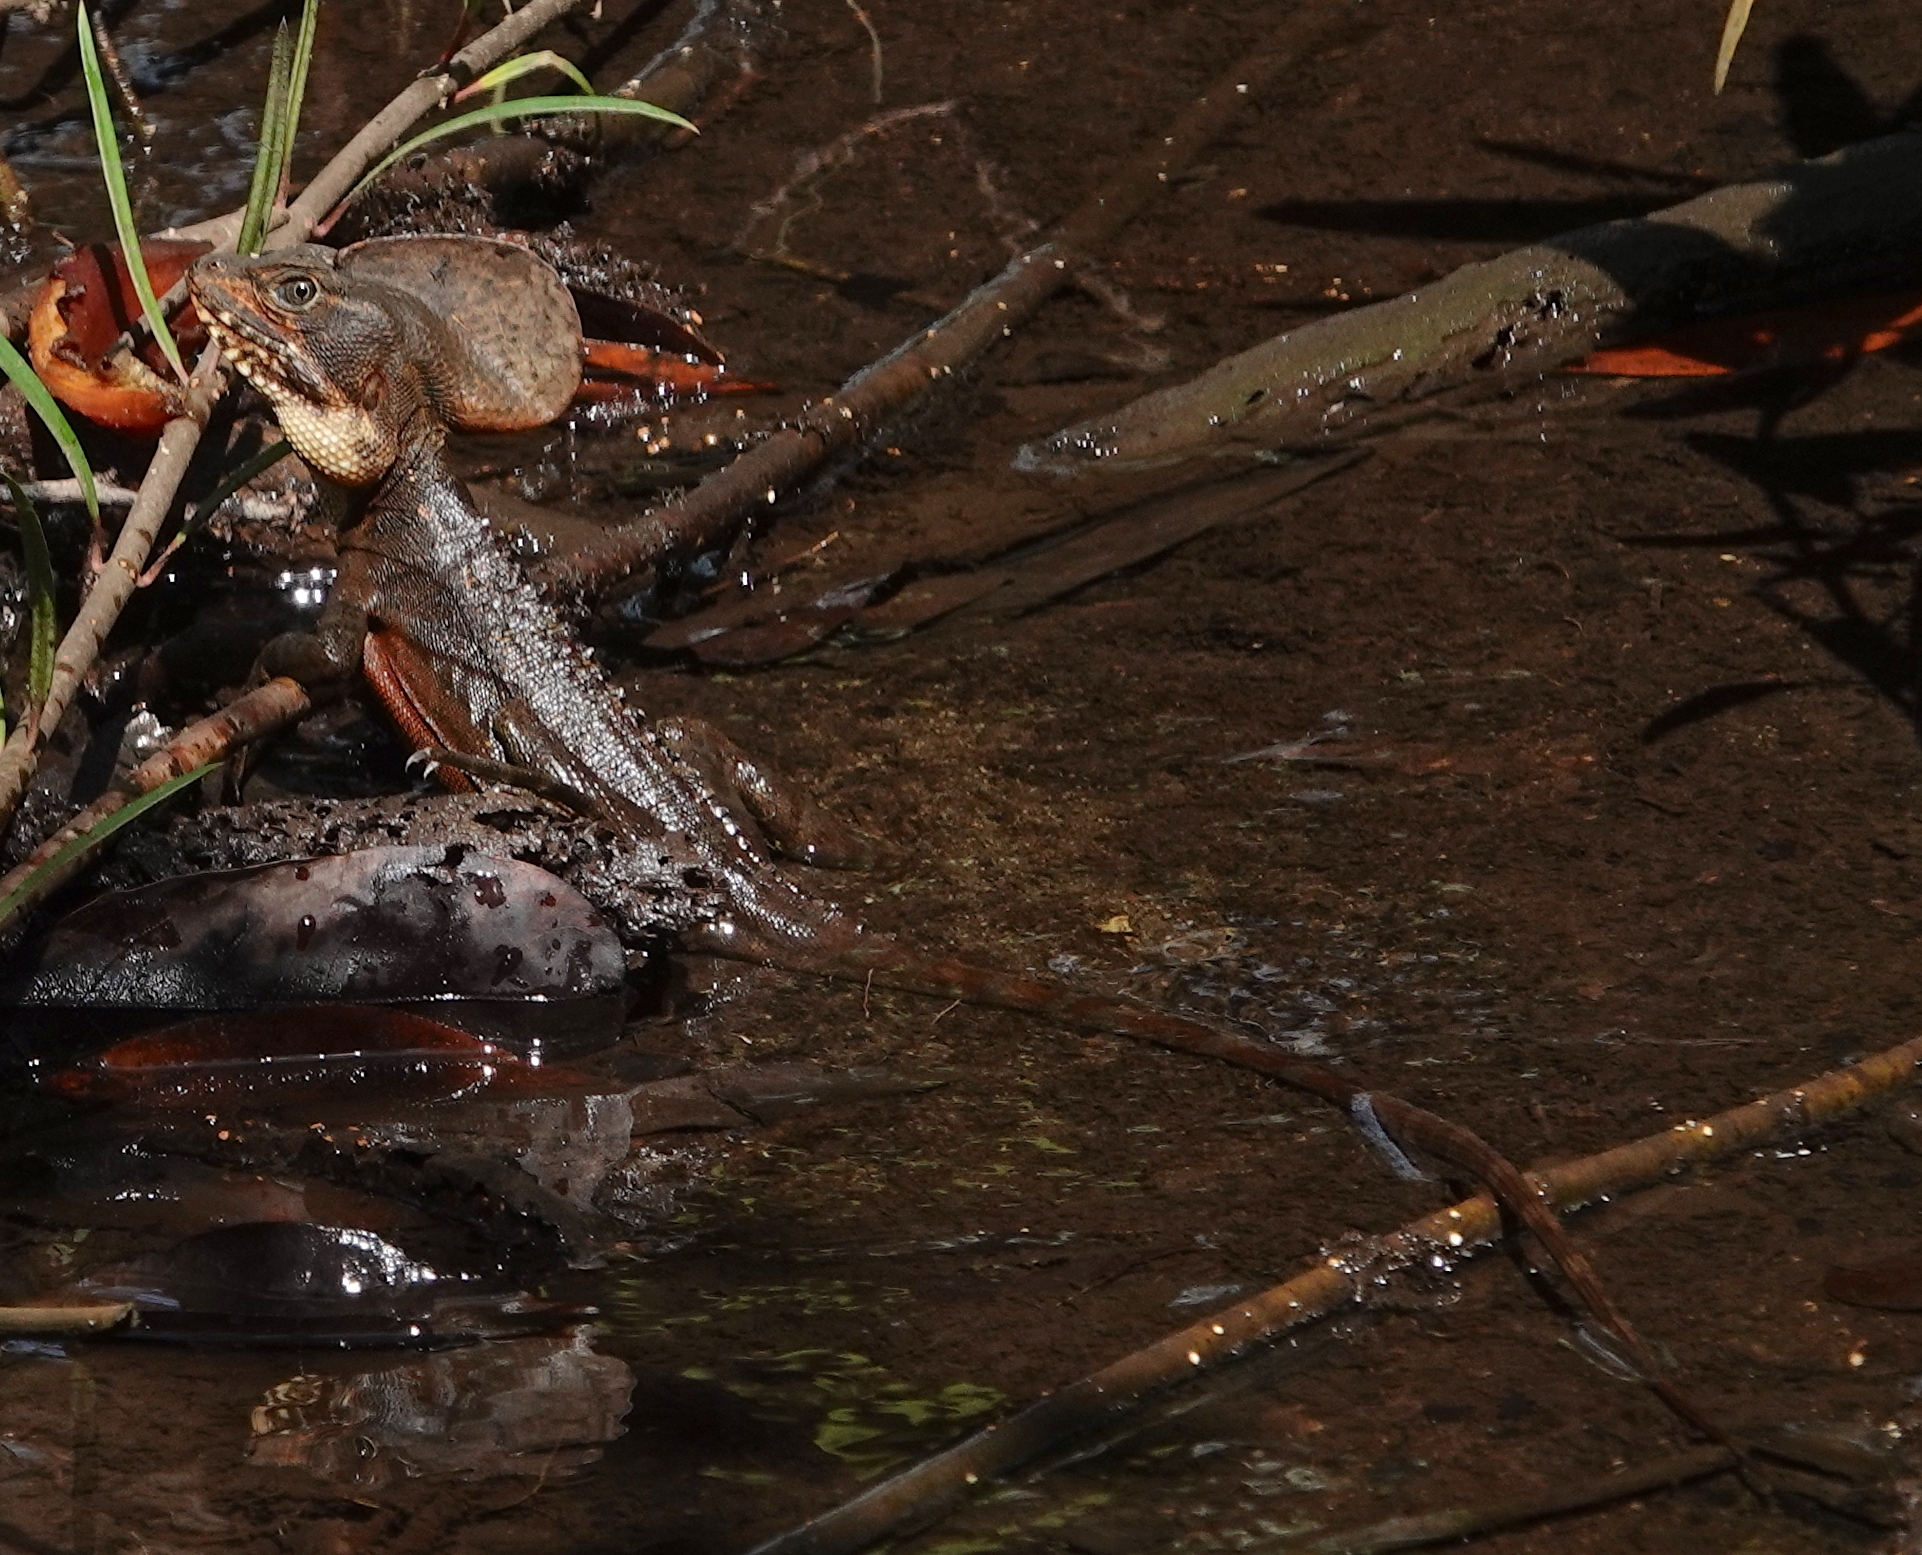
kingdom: Animalia
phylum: Chordata
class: Squamata
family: Corytophanidae
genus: Basiliscus
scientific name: Basiliscus galeritus
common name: Western basilisk
